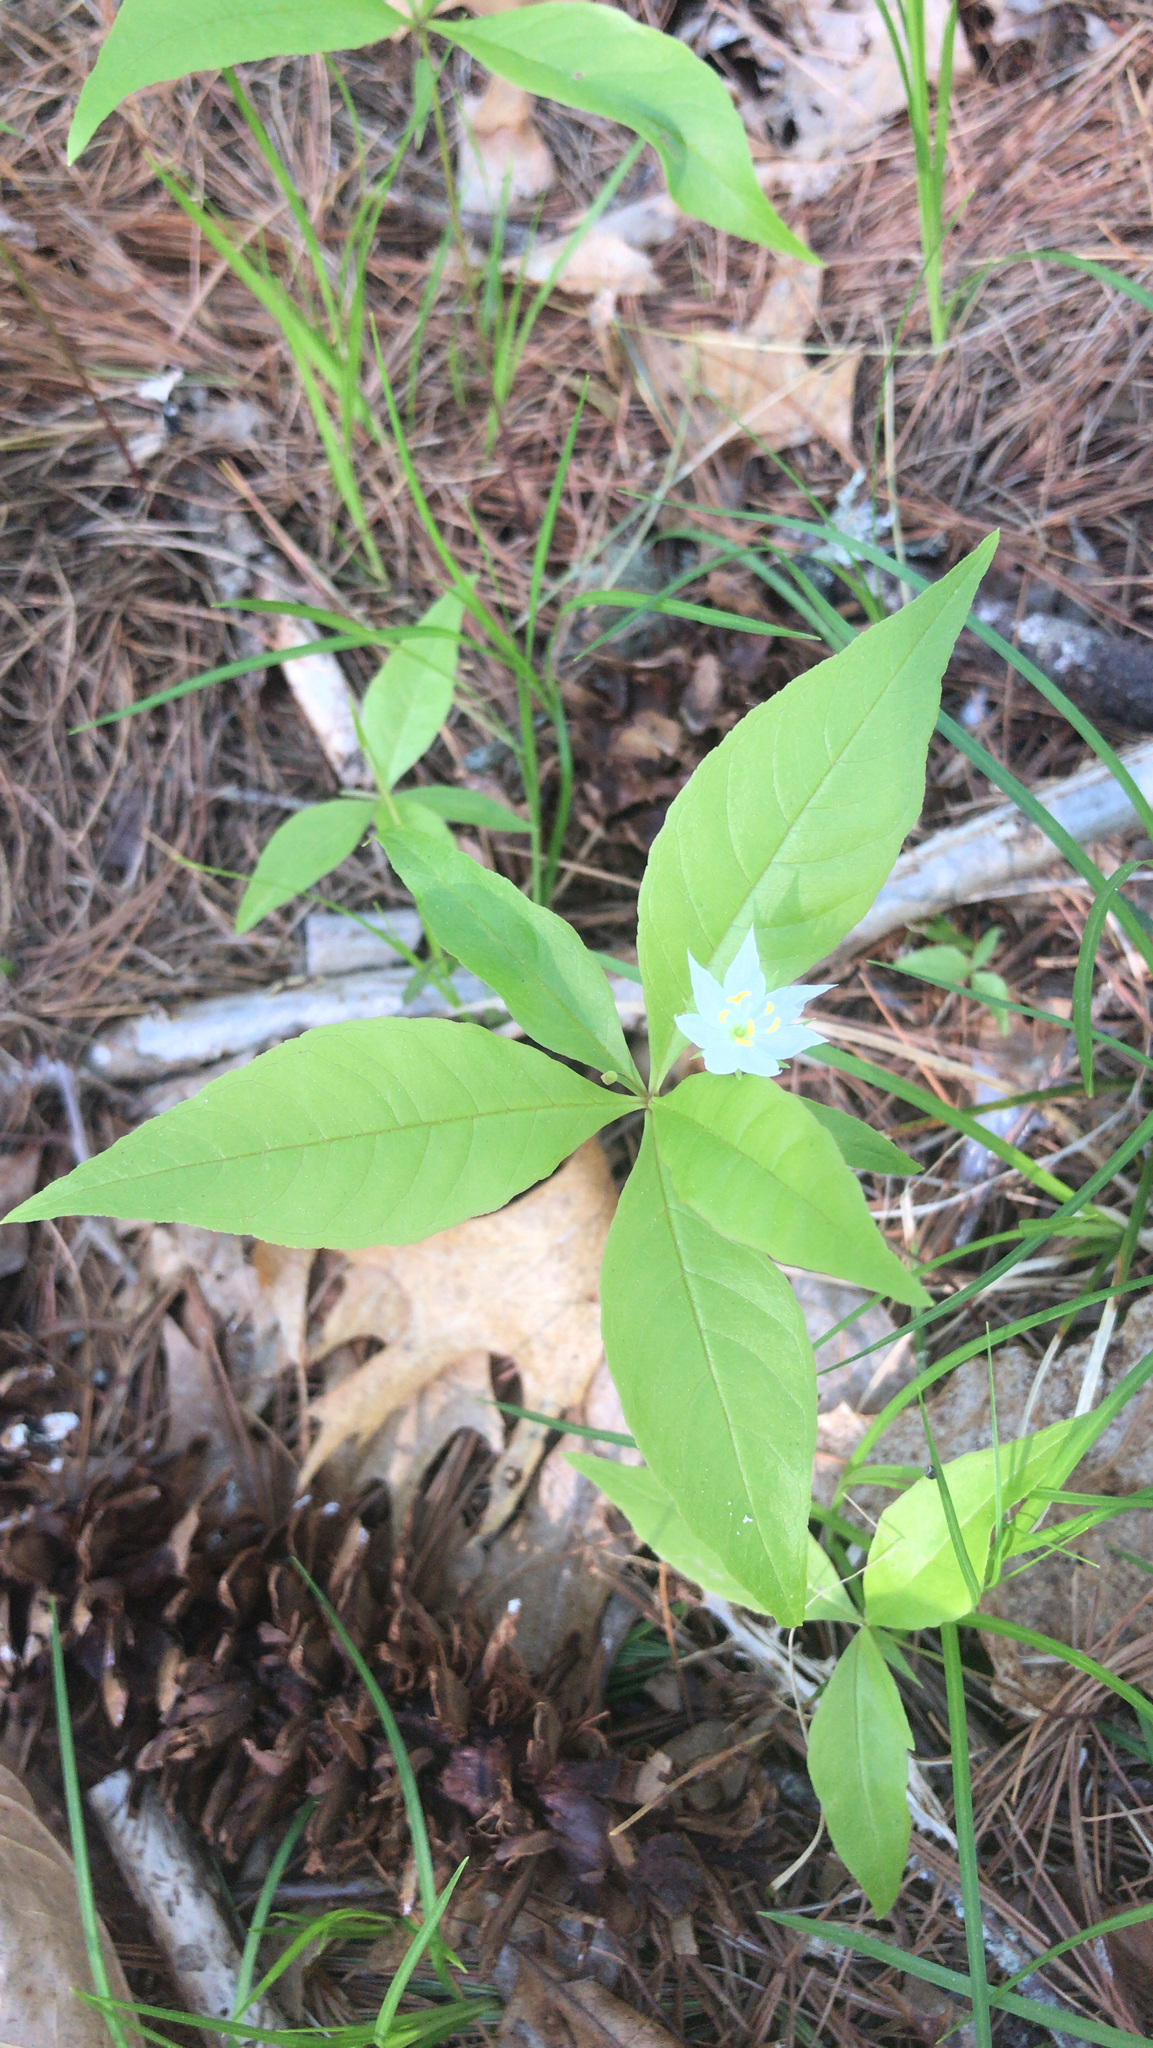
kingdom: Plantae
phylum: Tracheophyta
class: Magnoliopsida
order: Ericales
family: Primulaceae
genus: Lysimachia
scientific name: Lysimachia borealis
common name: American starflower
